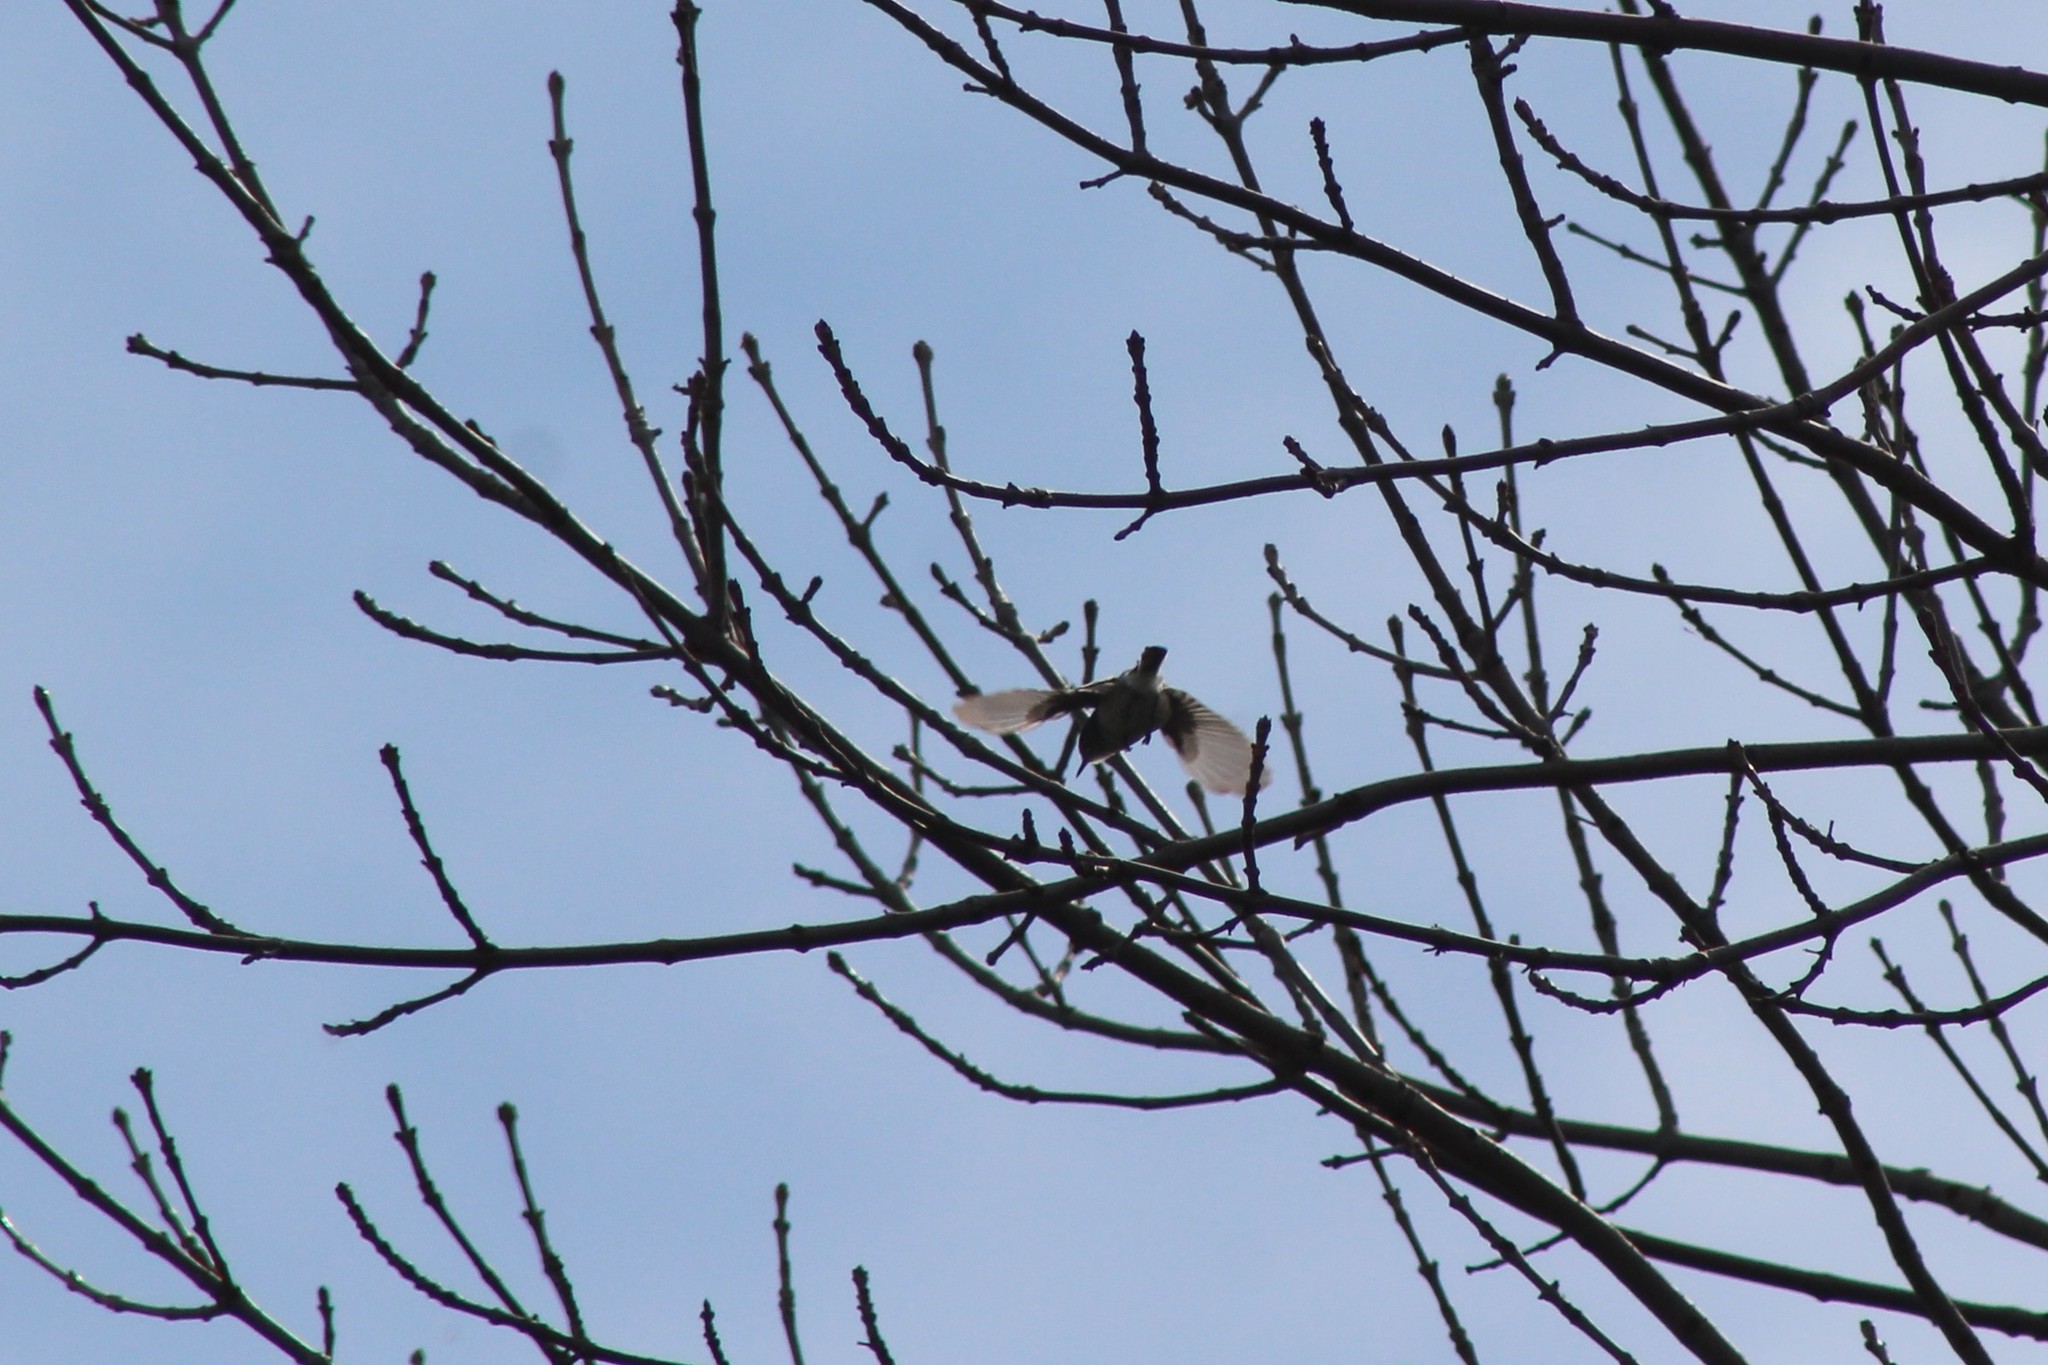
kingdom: Animalia
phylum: Chordata
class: Aves
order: Passeriformes
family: Polioptilidae
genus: Polioptila
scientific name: Polioptila caerulea
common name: Blue-gray gnatcatcher
